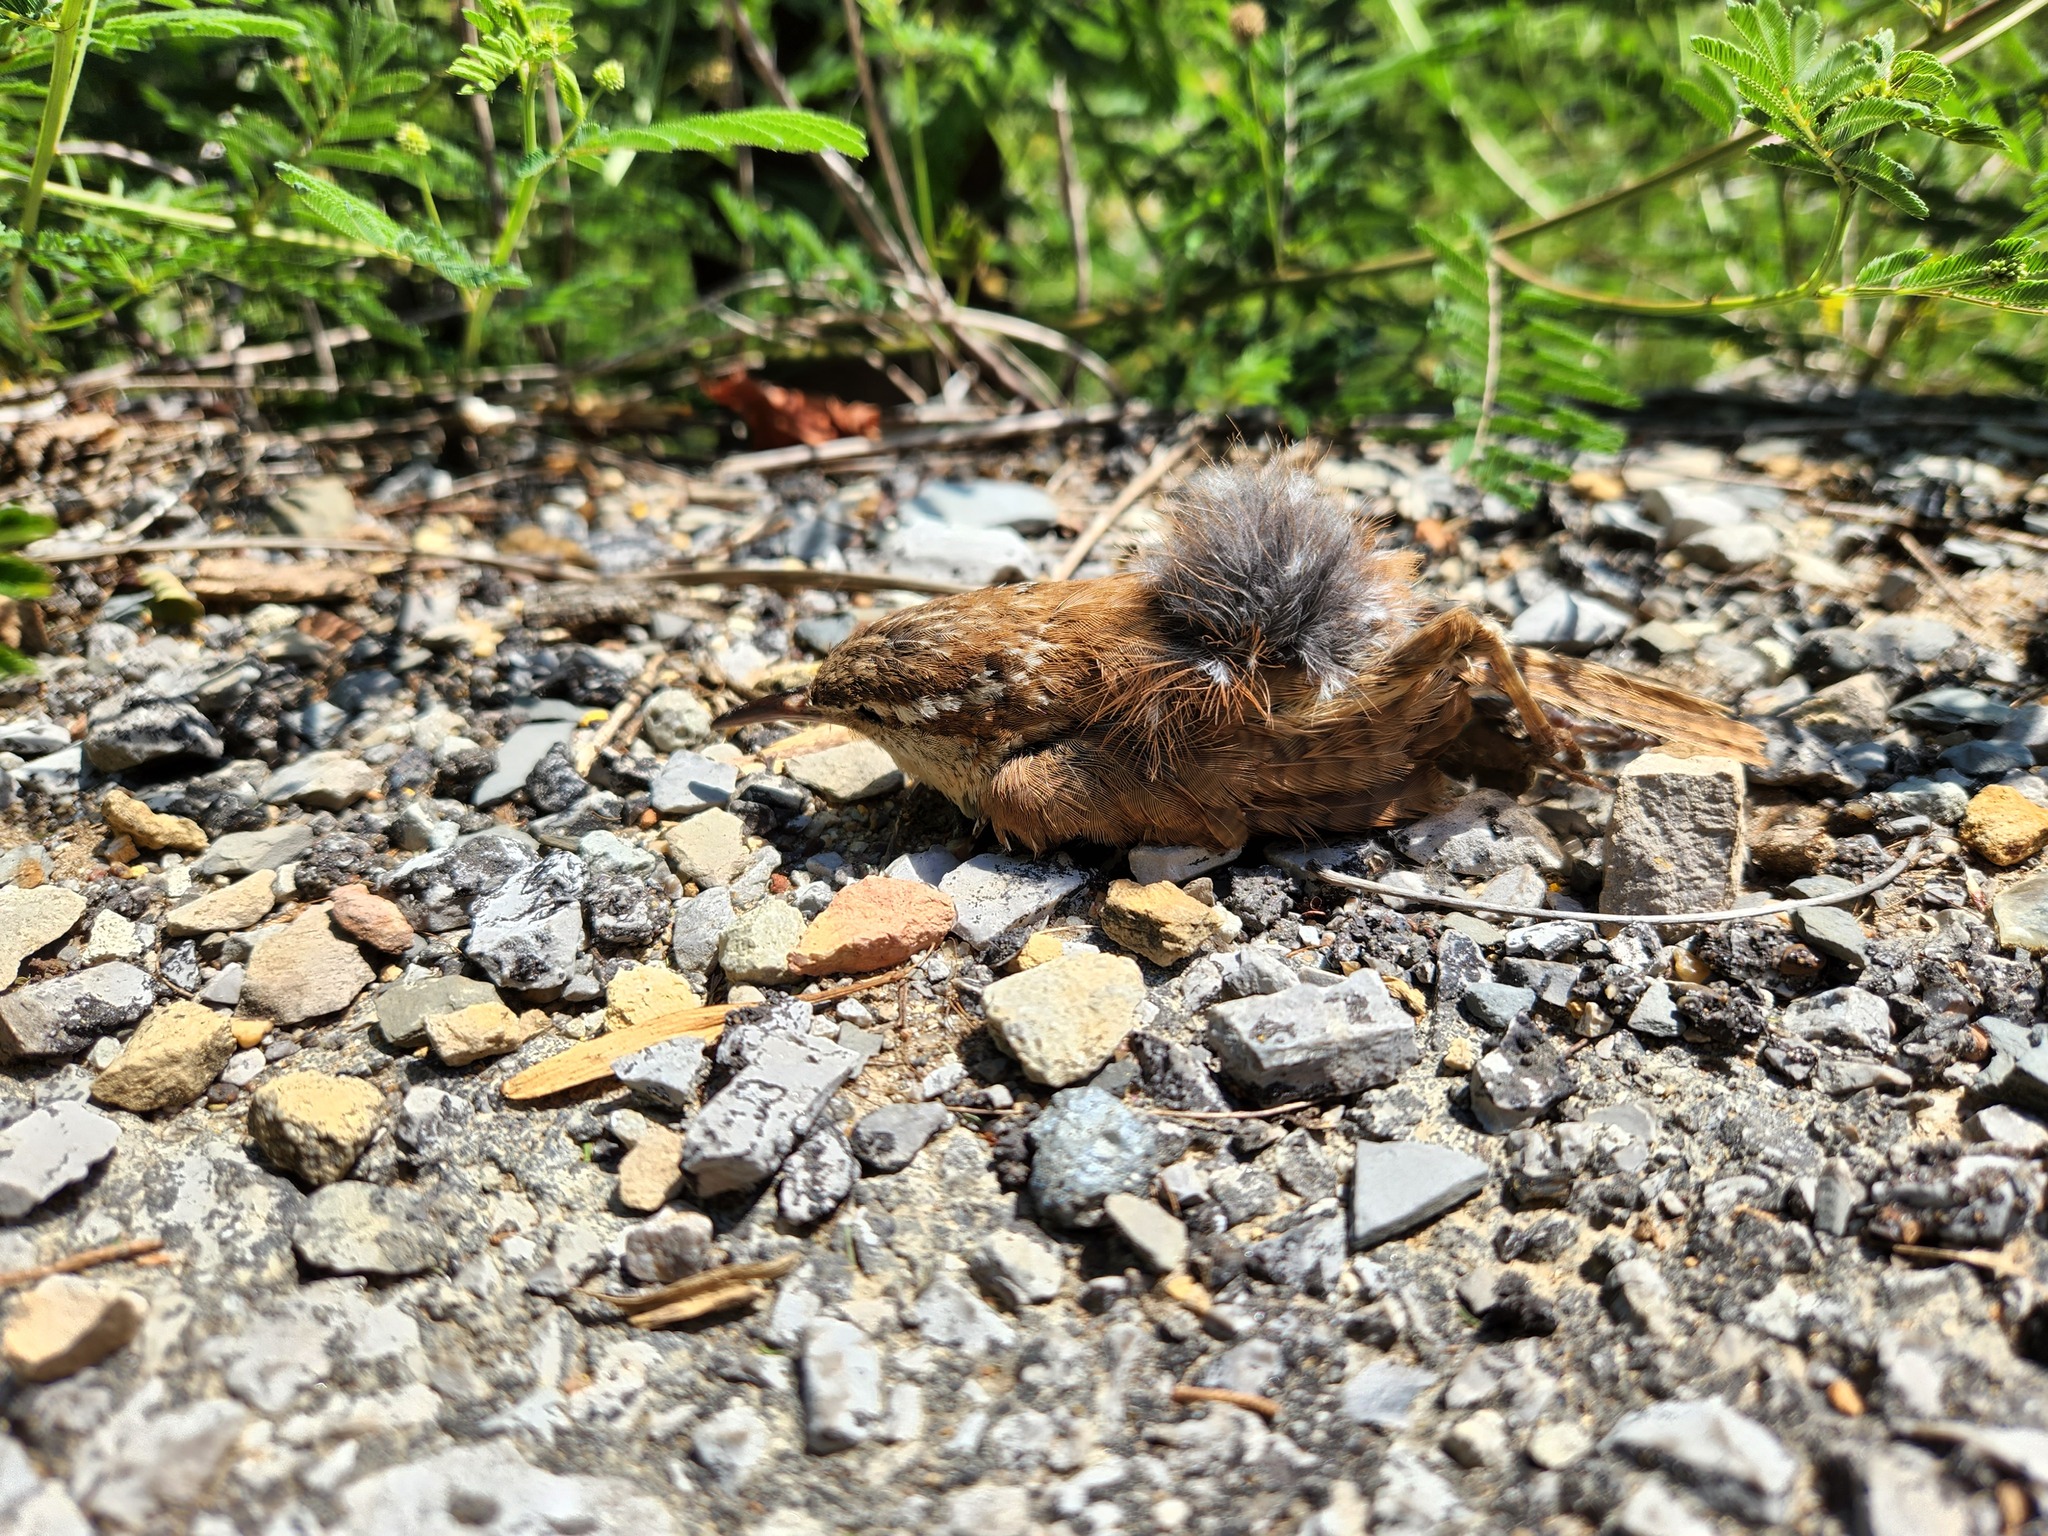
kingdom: Animalia
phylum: Chordata
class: Aves
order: Passeriformes
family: Troglodytidae
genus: Thryothorus
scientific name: Thryothorus ludovicianus
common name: Carolina wren
